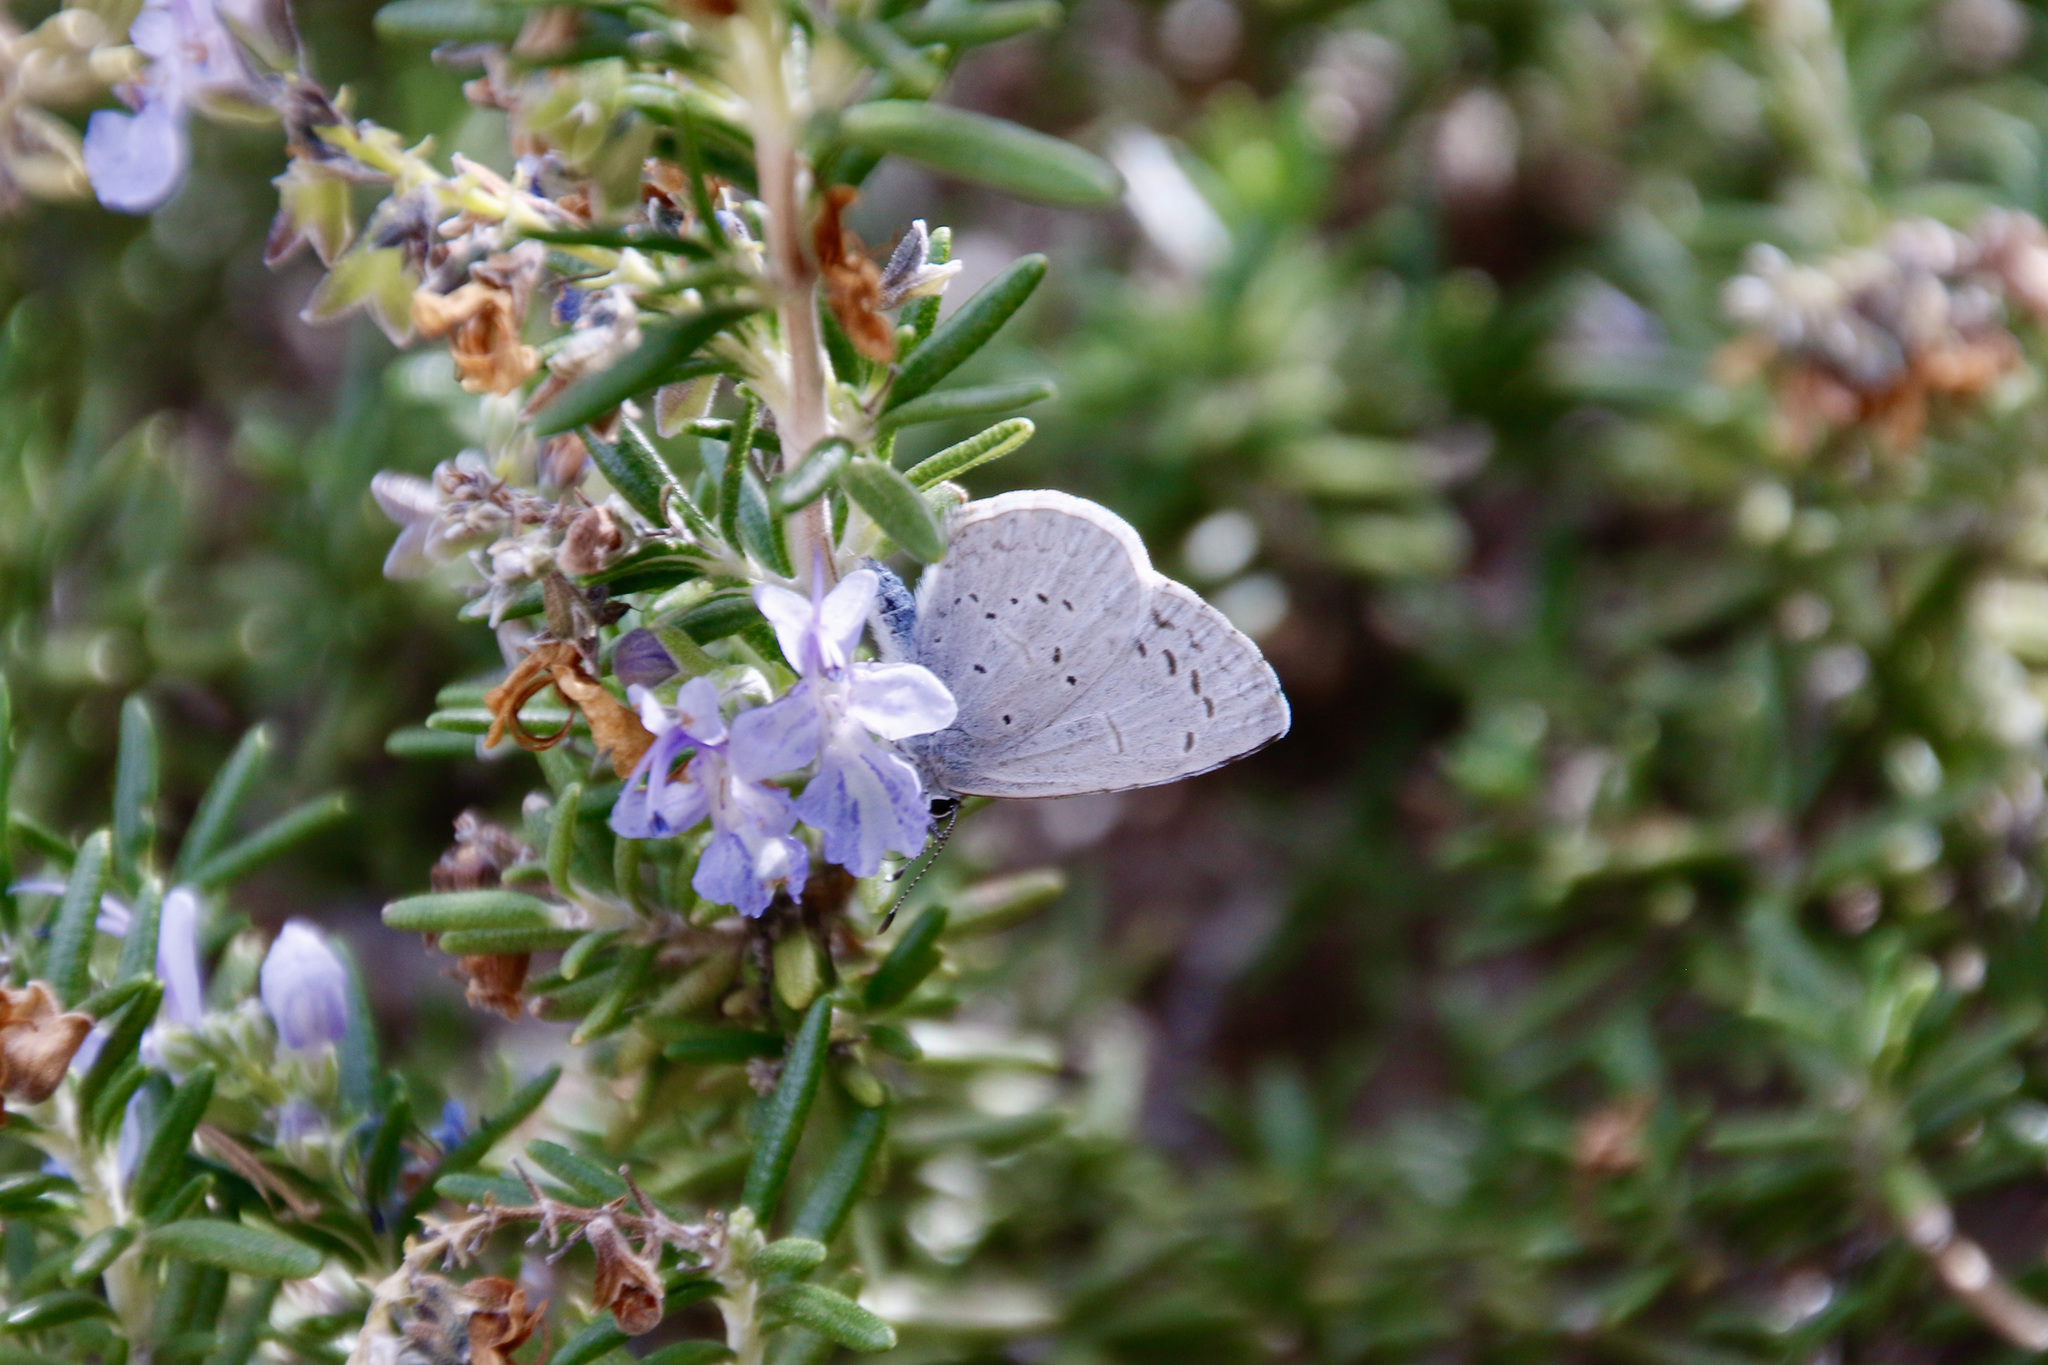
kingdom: Animalia
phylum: Arthropoda
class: Insecta
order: Lepidoptera
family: Lycaenidae
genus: Celastrina
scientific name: Celastrina ladon
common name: Spring azure
